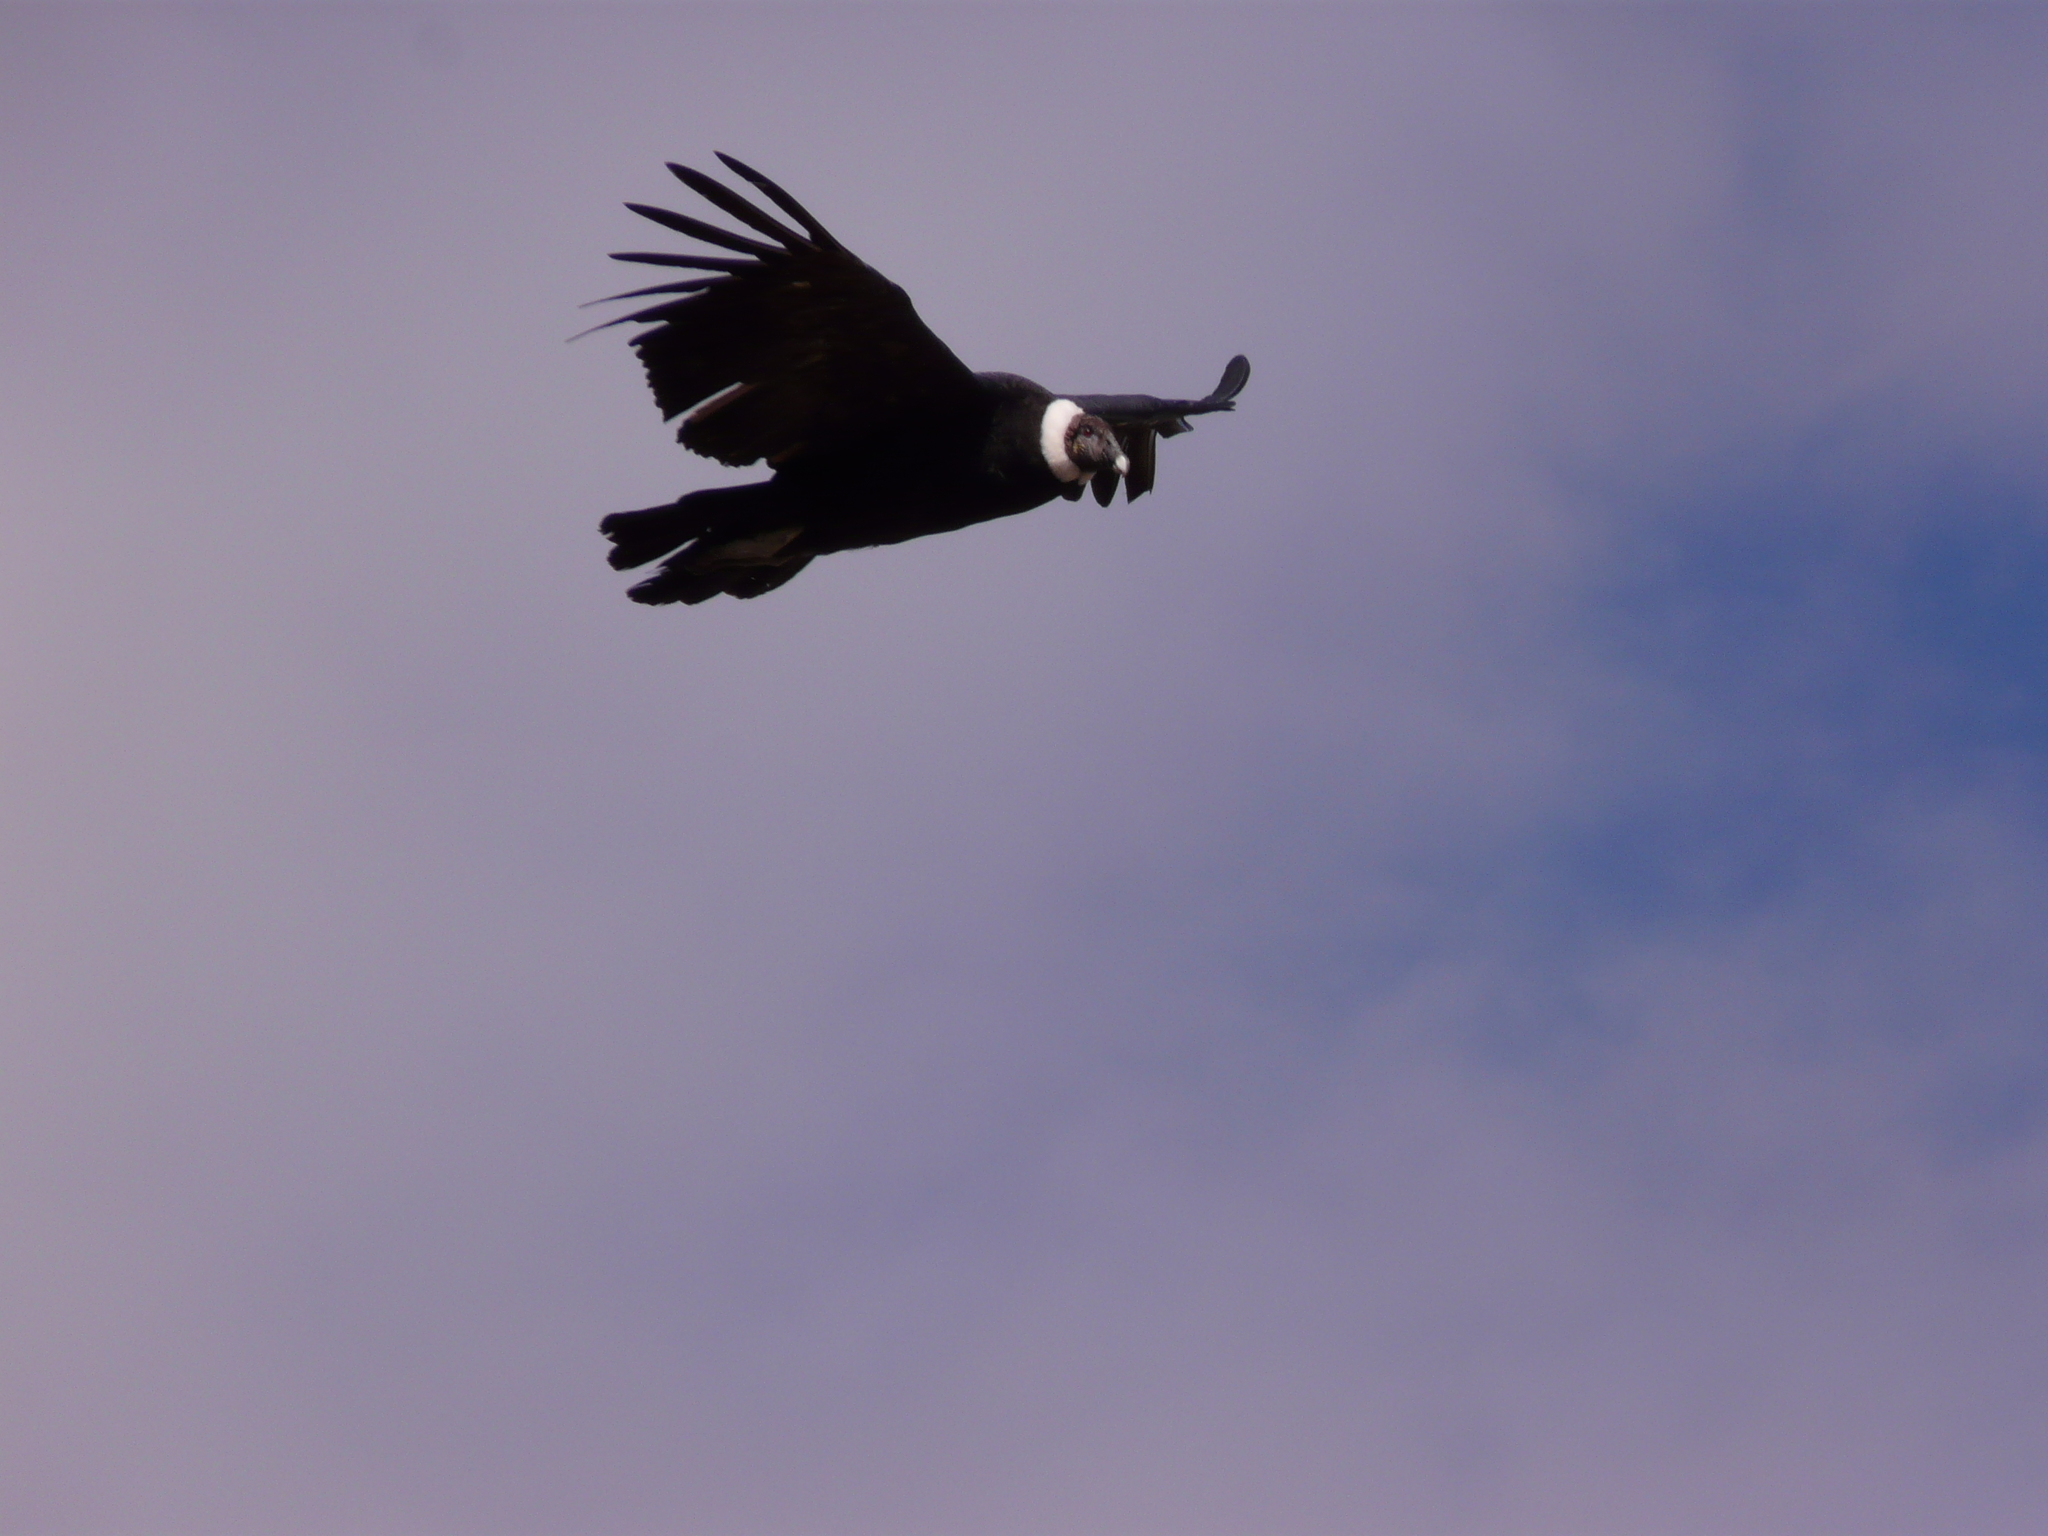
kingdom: Animalia
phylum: Chordata
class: Aves
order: Accipitriformes
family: Cathartidae
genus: Vultur
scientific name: Vultur gryphus
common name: Andean condor
